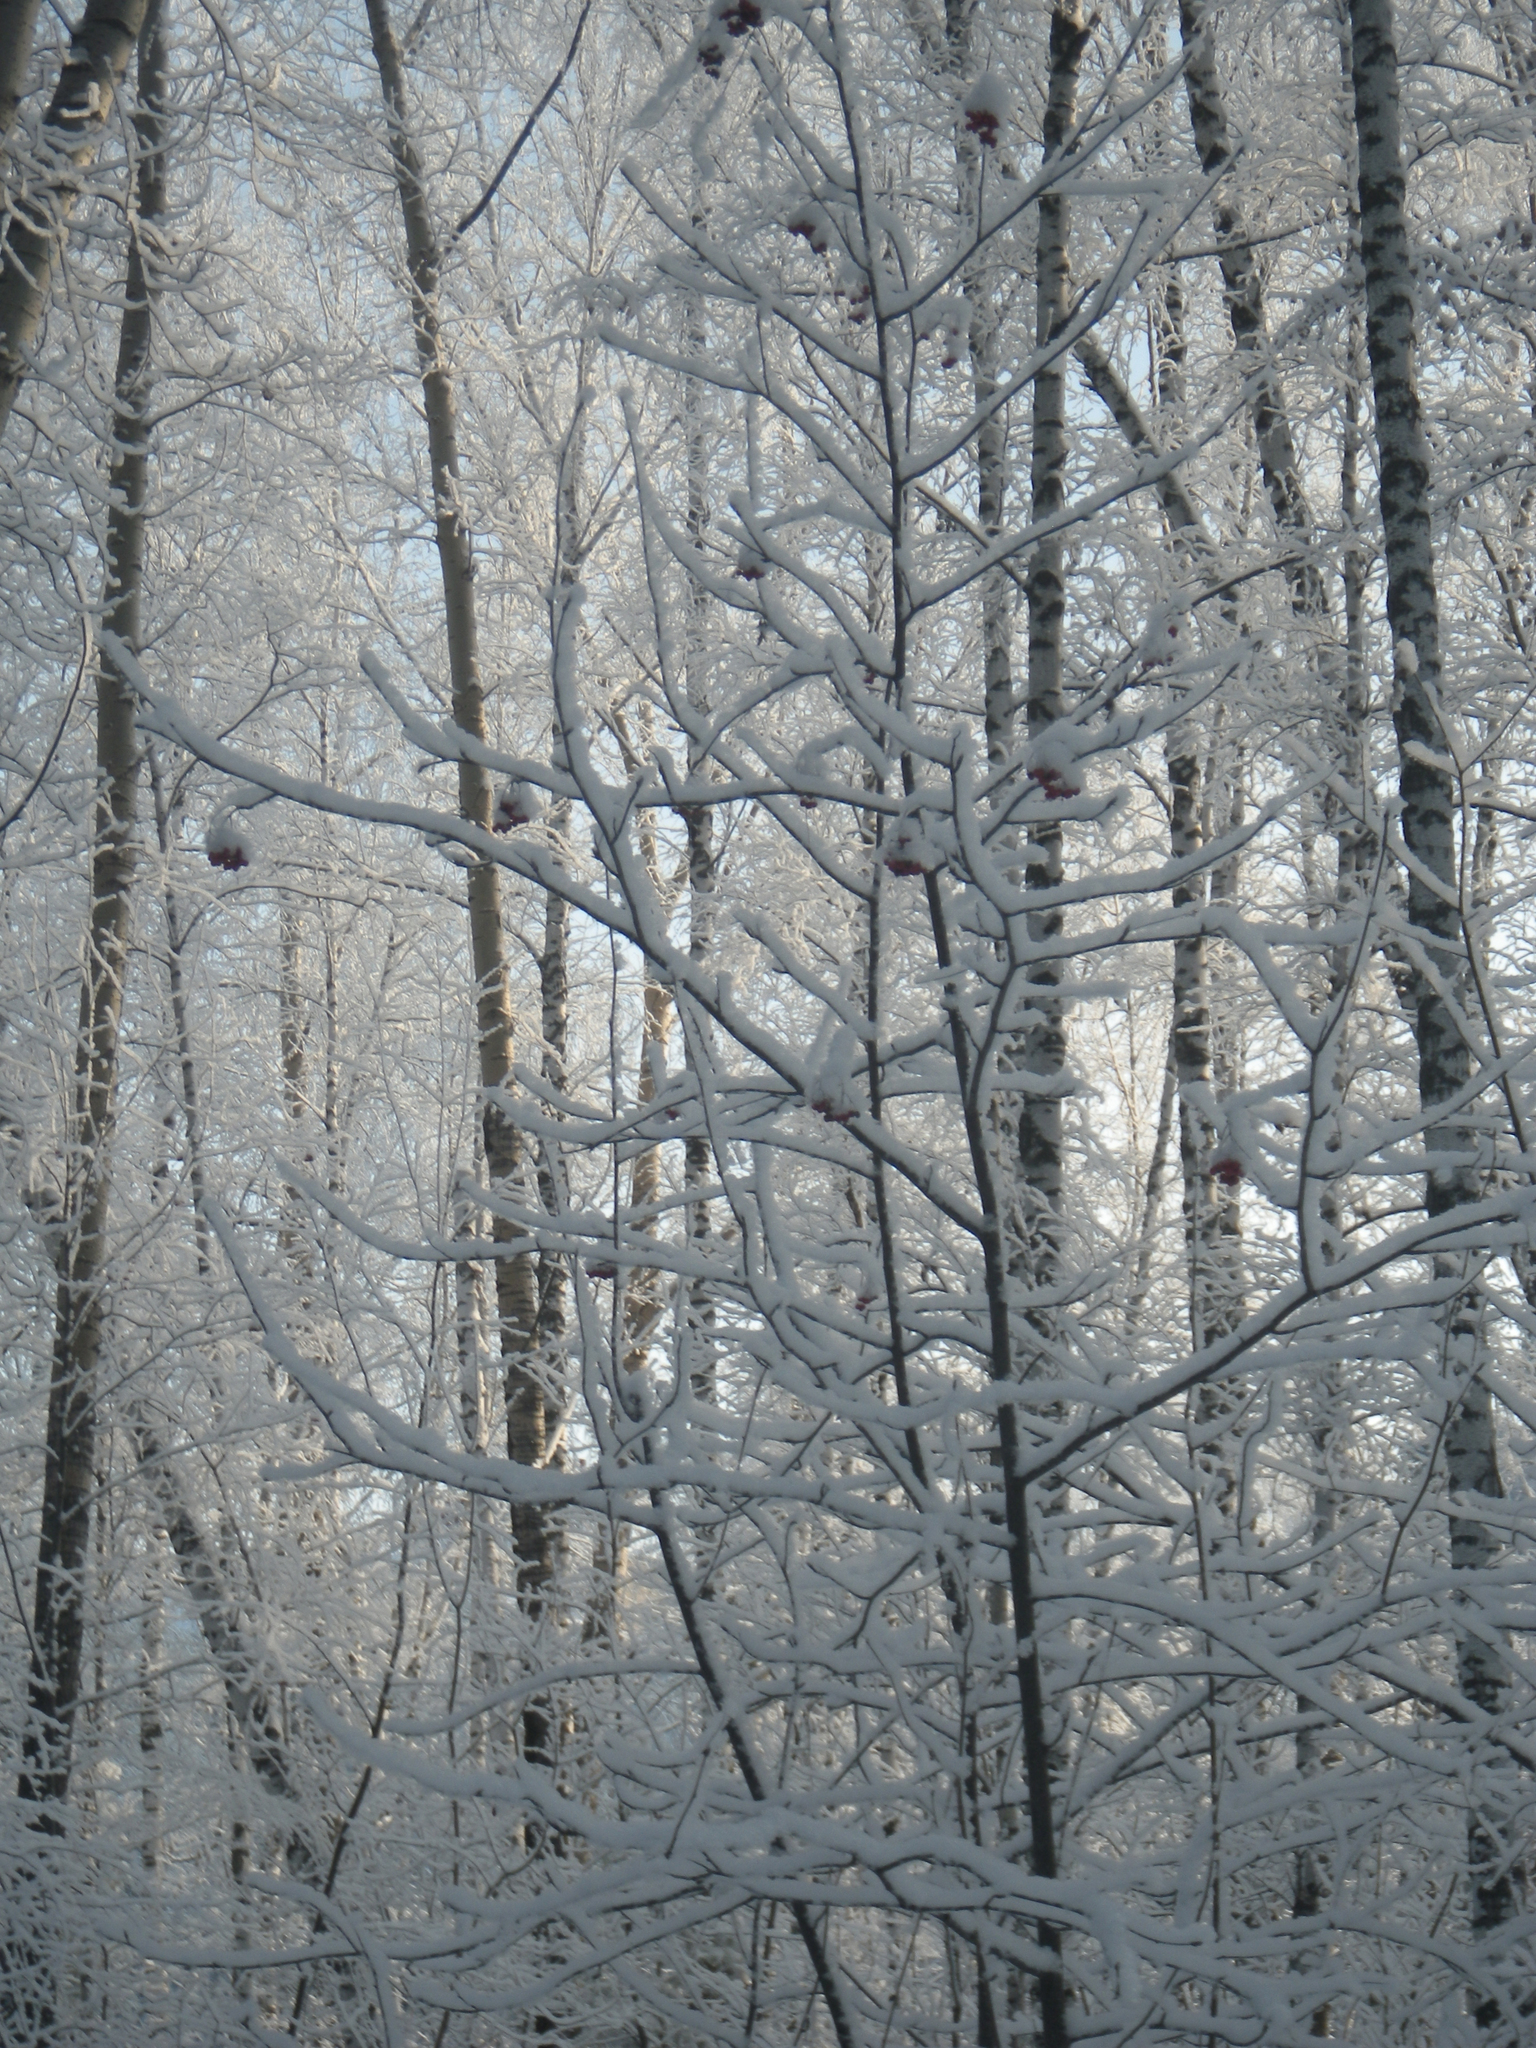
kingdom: Plantae
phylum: Tracheophyta
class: Magnoliopsida
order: Rosales
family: Rosaceae
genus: Sorbus
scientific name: Sorbus aucuparia
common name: Rowan
